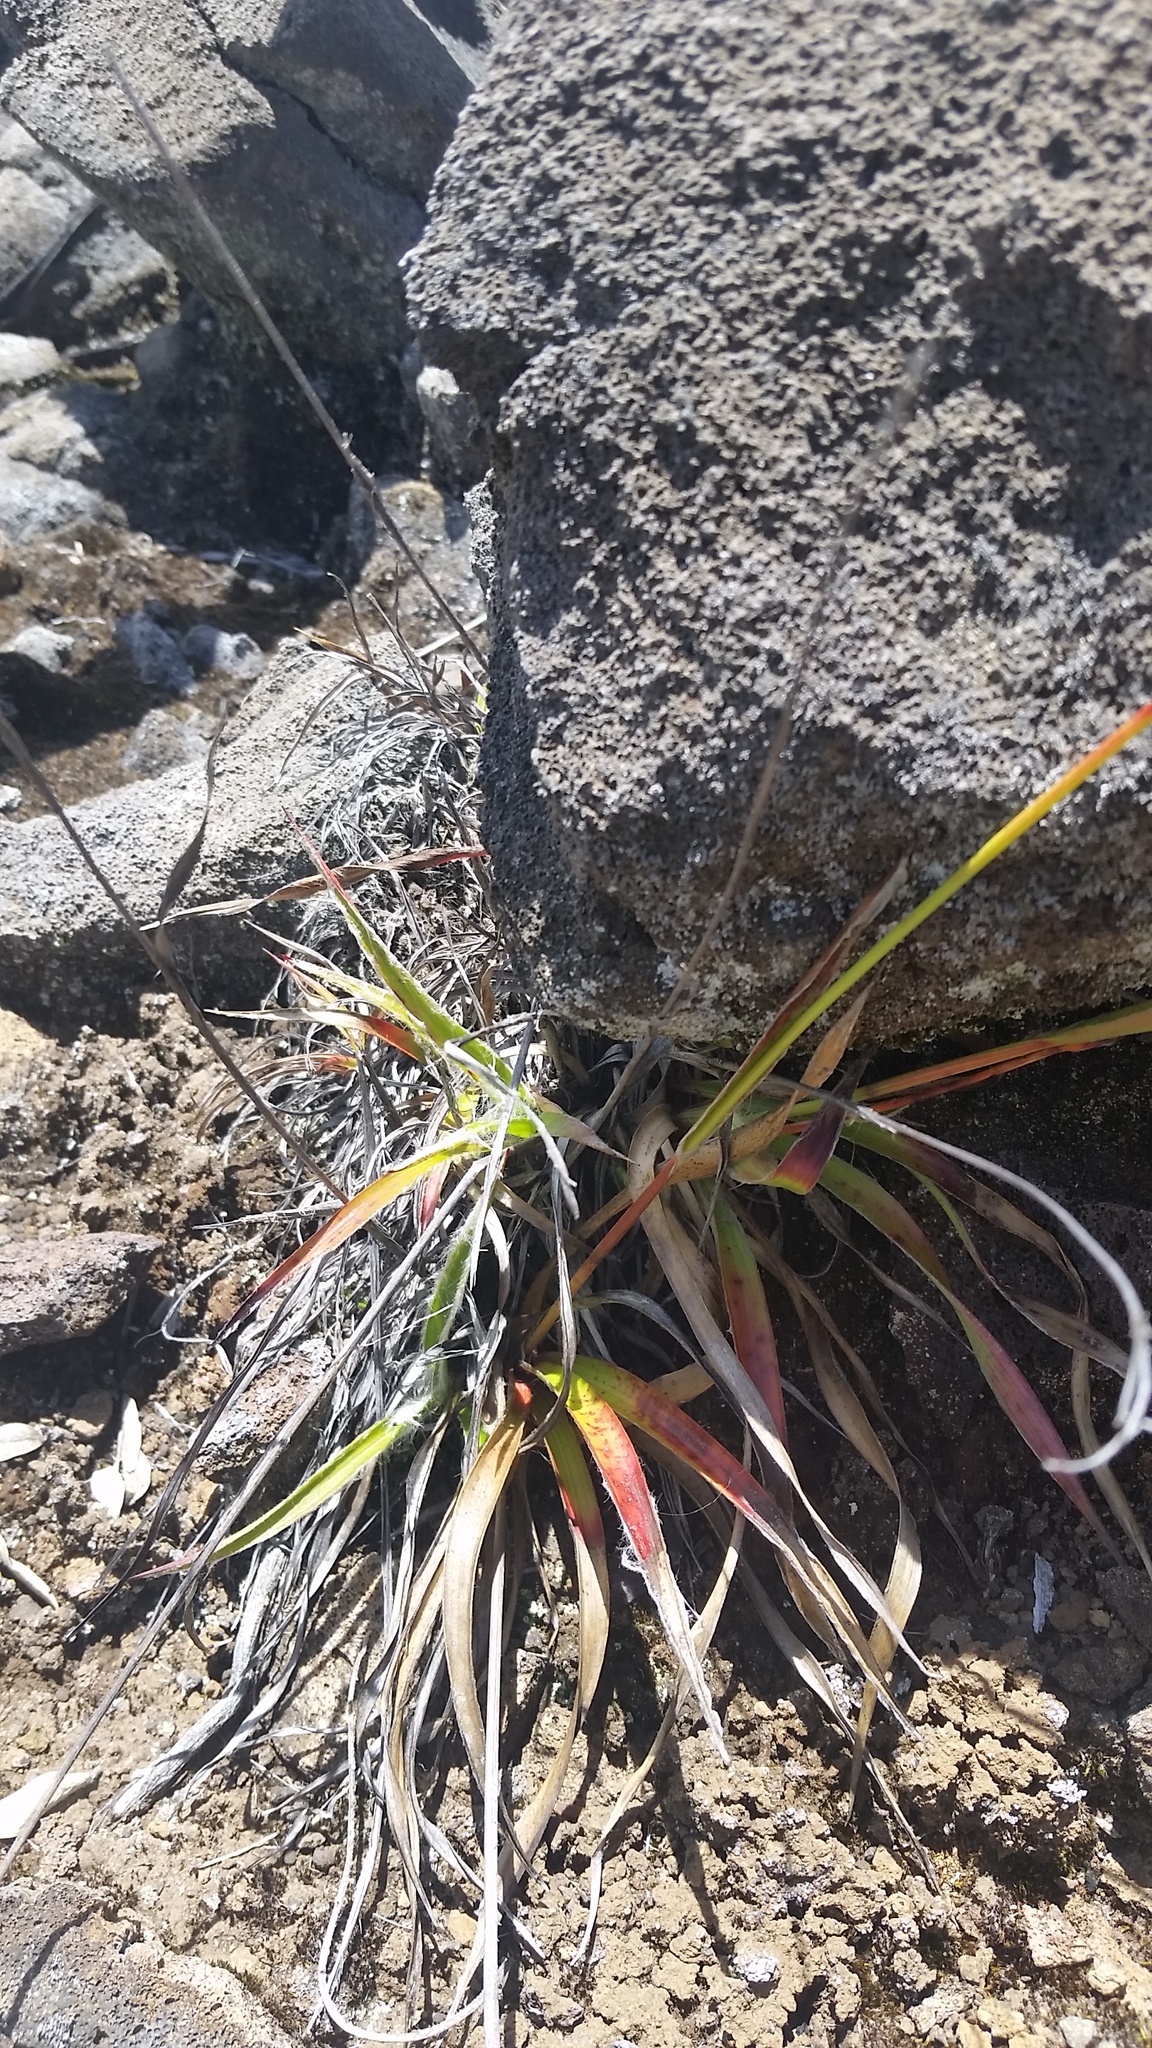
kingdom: Plantae
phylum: Tracheophyta
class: Liliopsida
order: Poales
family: Juncaceae
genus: Luzula
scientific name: Luzula hawaiiensis
